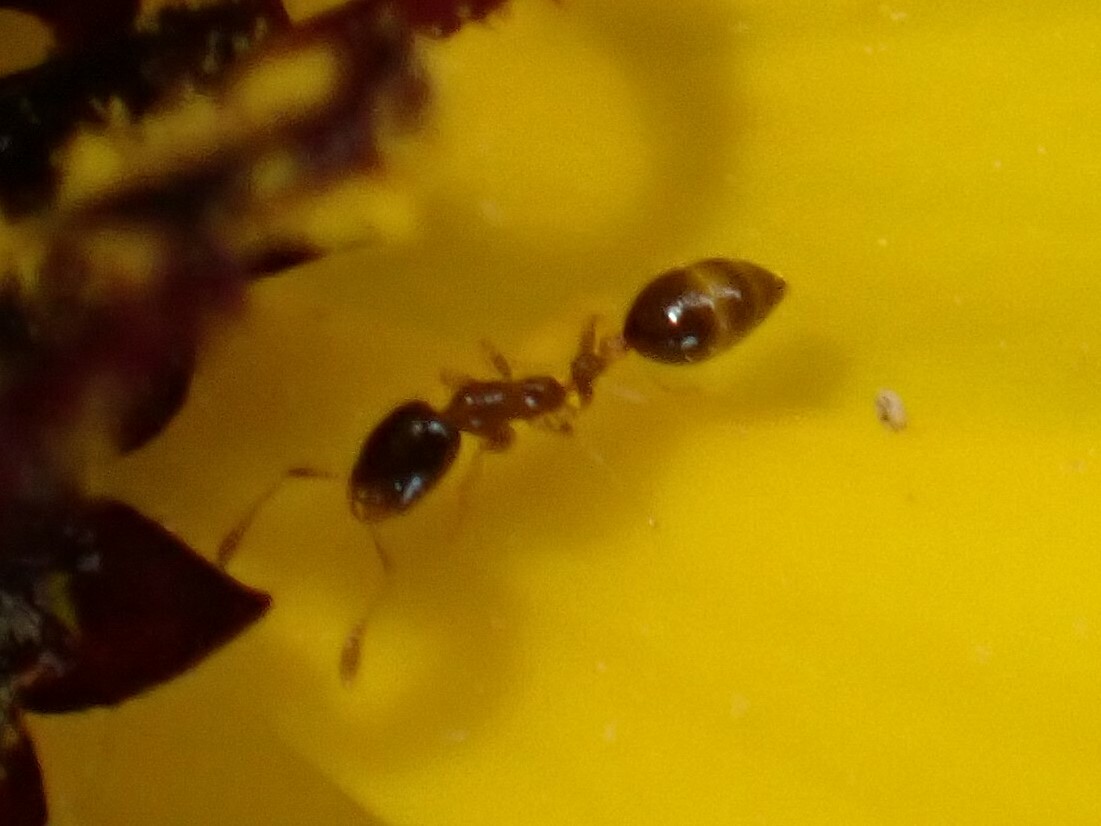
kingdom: Animalia
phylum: Arthropoda
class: Insecta
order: Hymenoptera
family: Formicidae
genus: Monomorium
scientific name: Monomorium floricola
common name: Bicolored trailing ant
